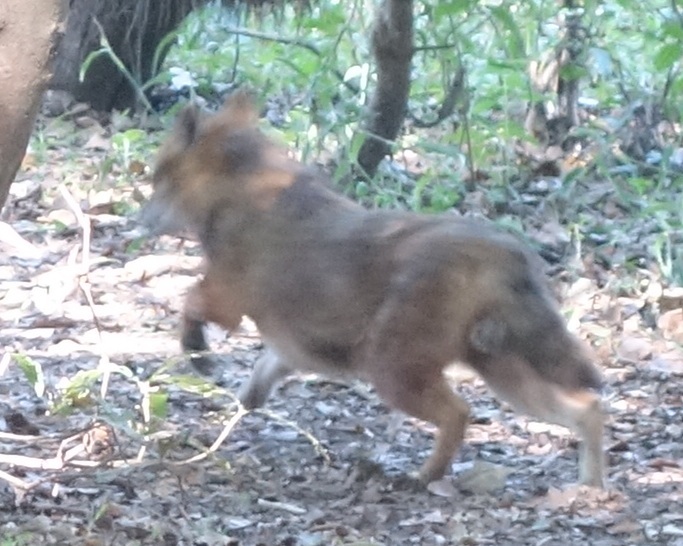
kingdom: Animalia
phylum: Chordata
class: Mammalia
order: Carnivora
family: Canidae
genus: Canis
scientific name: Canis aureus
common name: Golden jackal
